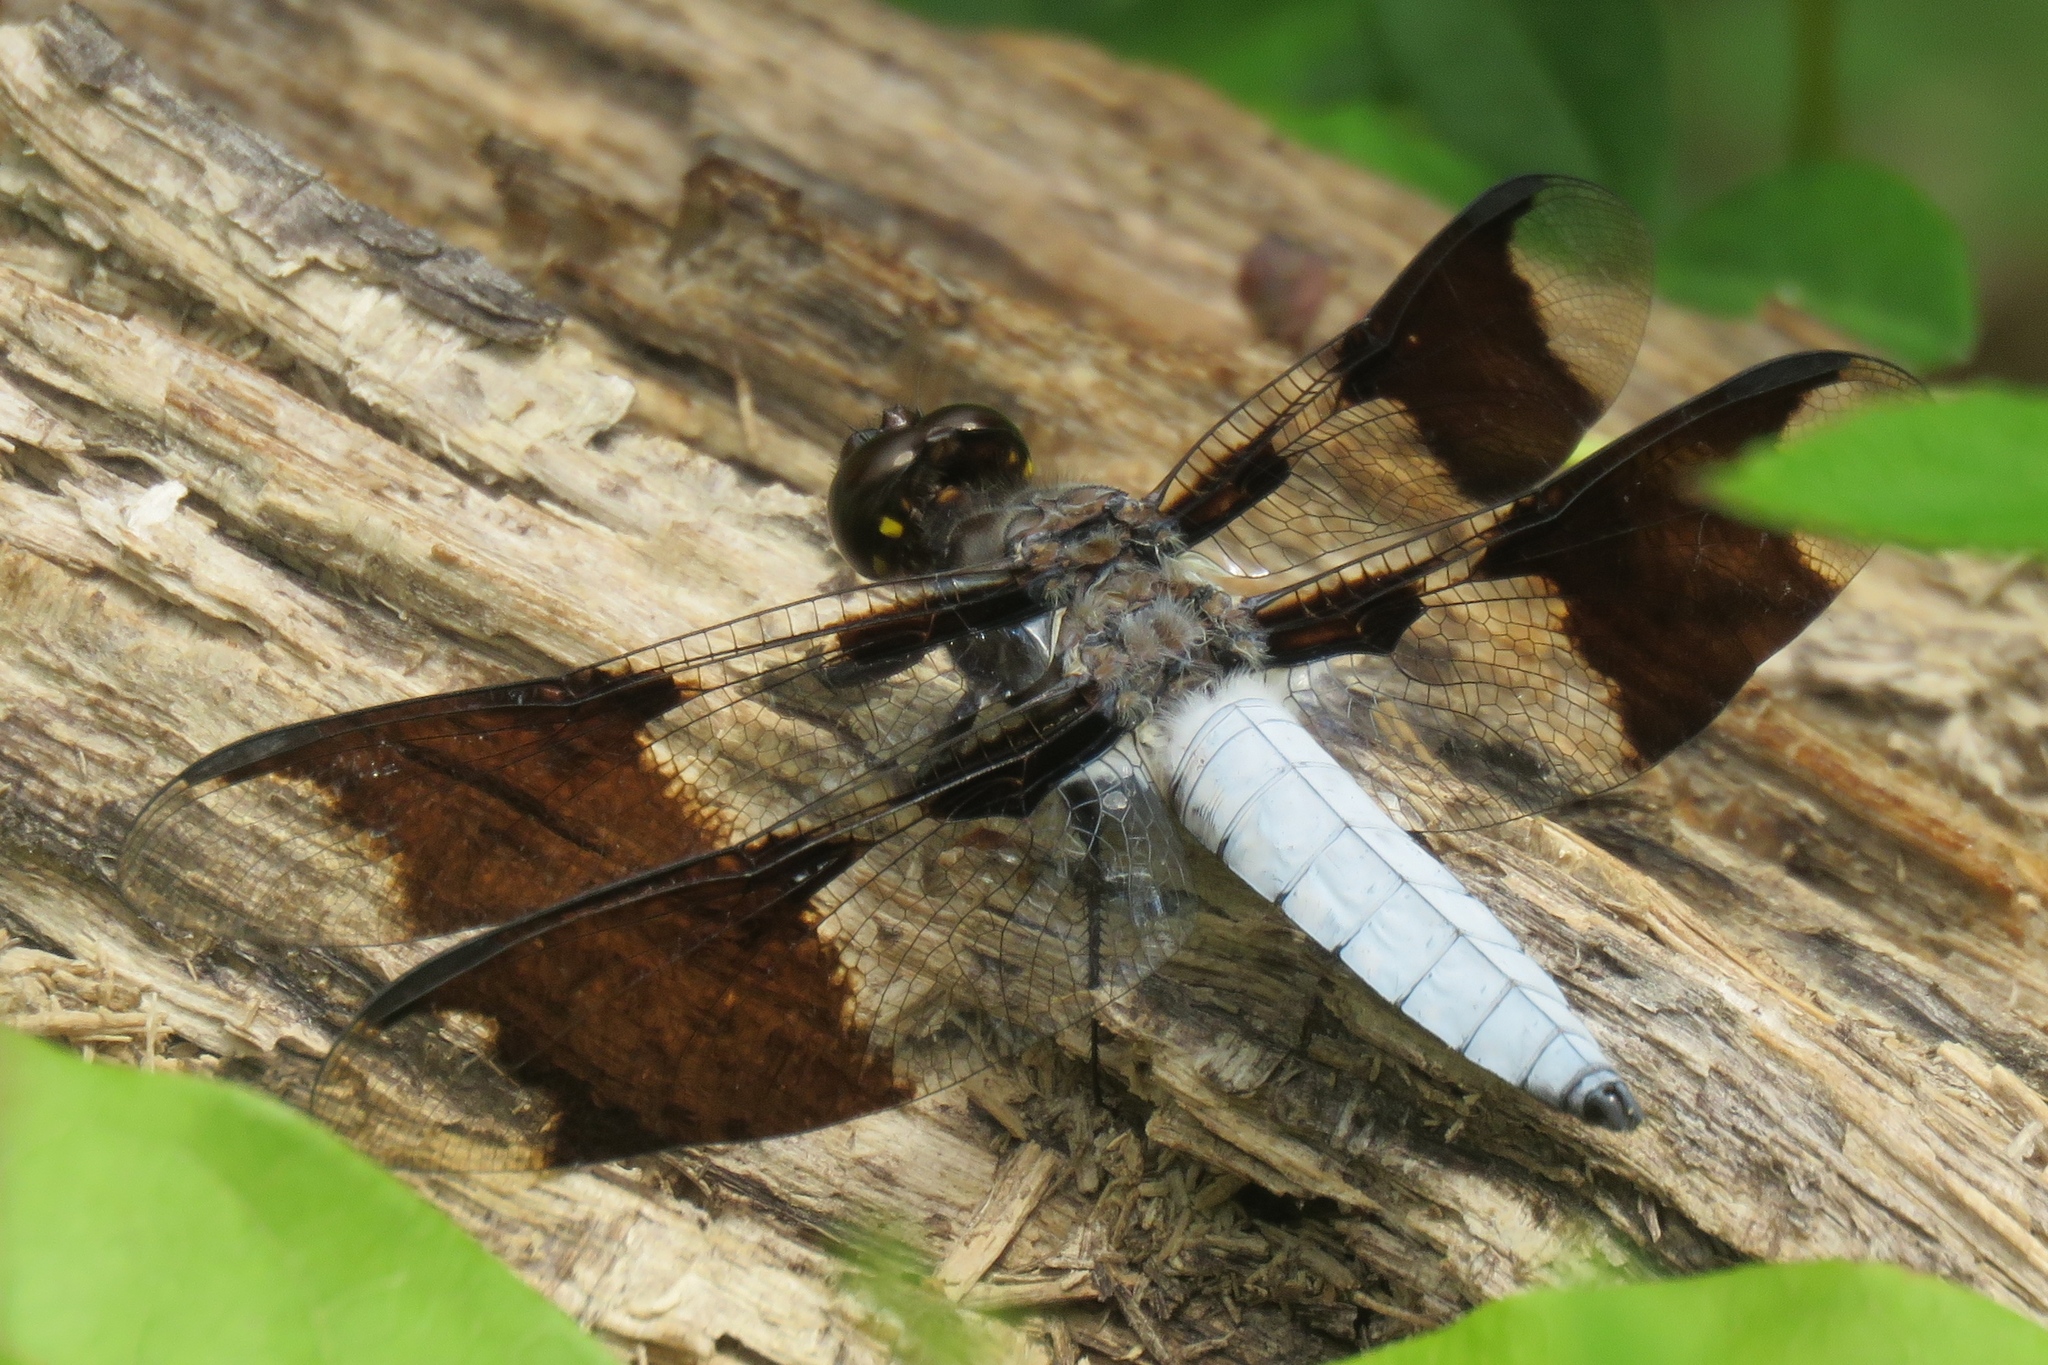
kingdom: Animalia
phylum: Arthropoda
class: Insecta
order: Odonata
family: Libellulidae
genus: Plathemis
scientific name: Plathemis lydia
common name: Common whitetail
